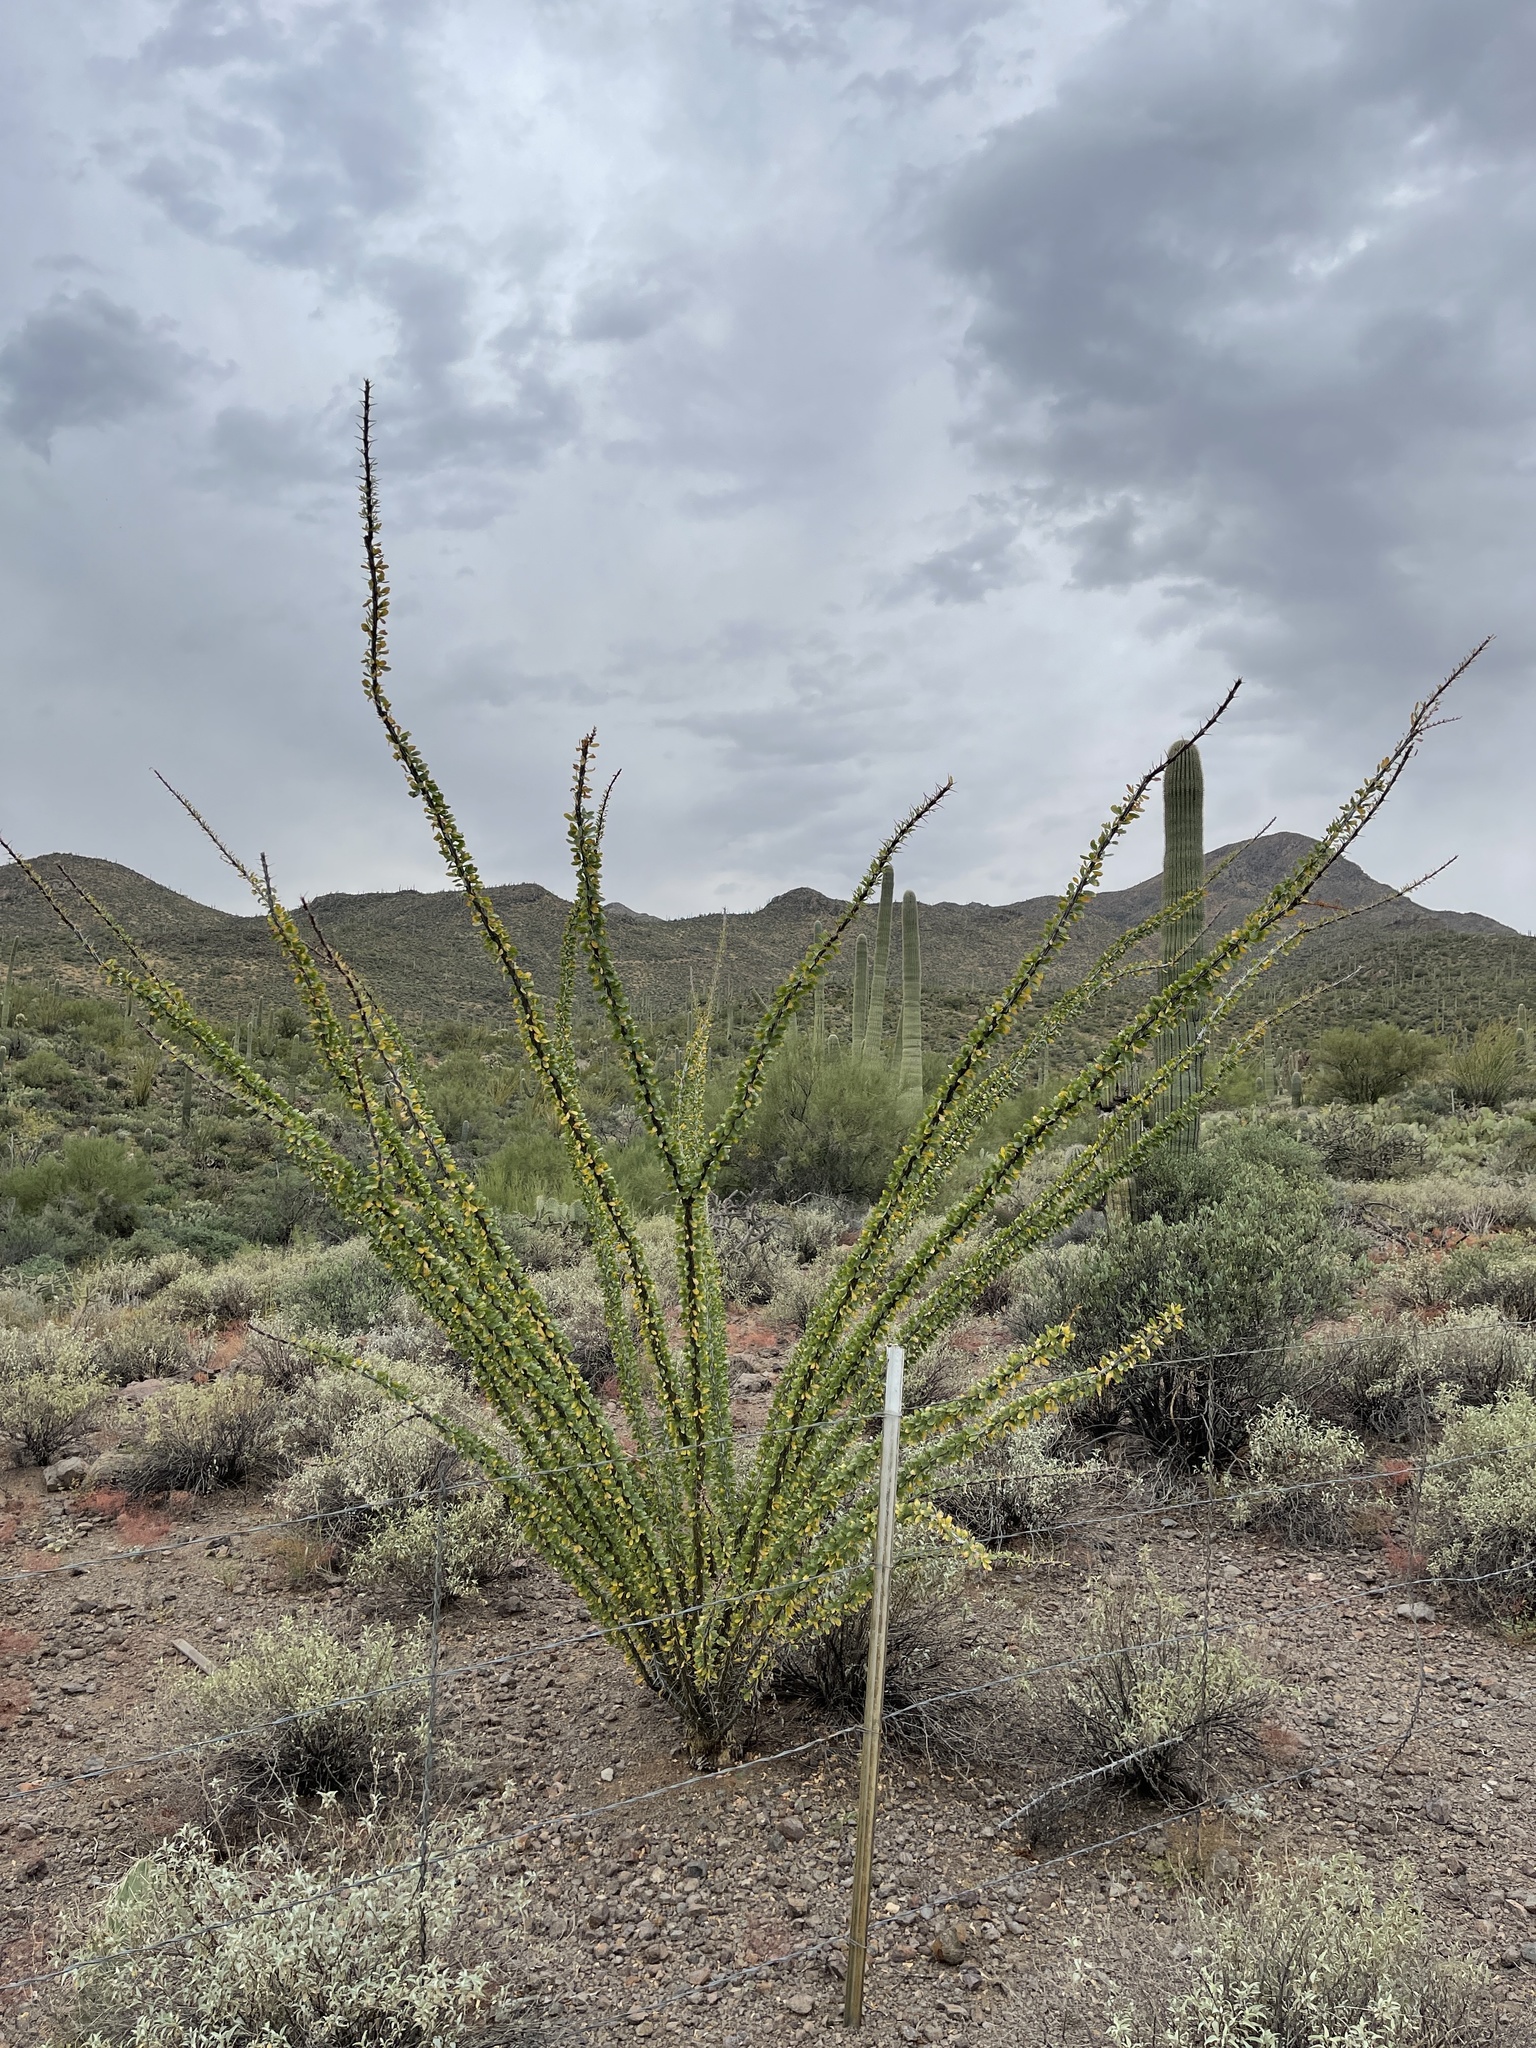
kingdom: Plantae
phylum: Tracheophyta
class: Magnoliopsida
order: Ericales
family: Fouquieriaceae
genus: Fouquieria
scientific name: Fouquieria splendens
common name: Vine-cactus
